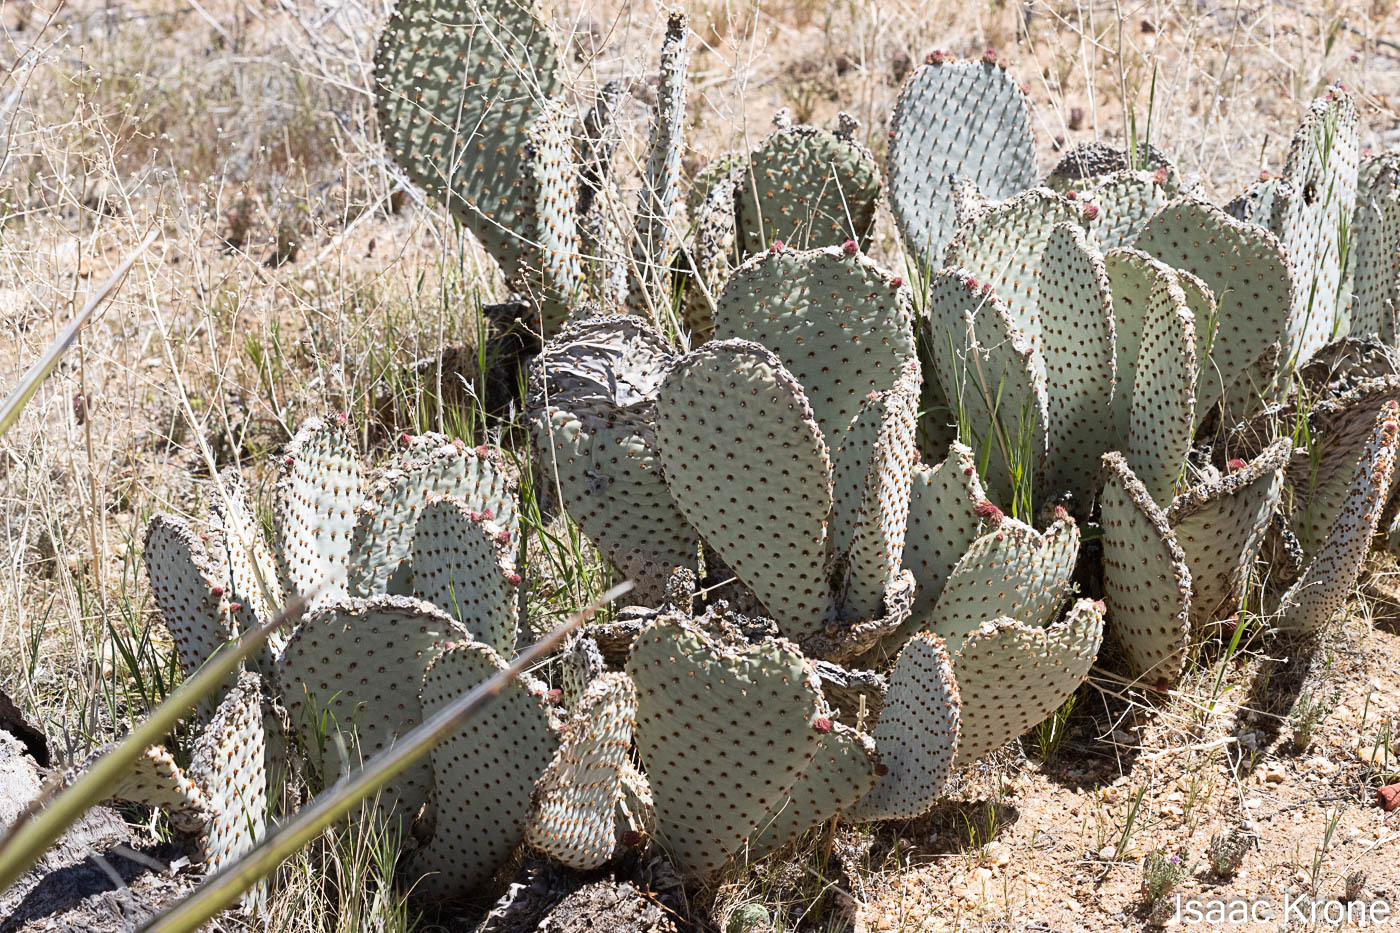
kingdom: Plantae
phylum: Tracheophyta
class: Magnoliopsida
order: Caryophyllales
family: Cactaceae
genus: Opuntia
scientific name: Opuntia basilaris
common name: Beavertail prickly-pear
